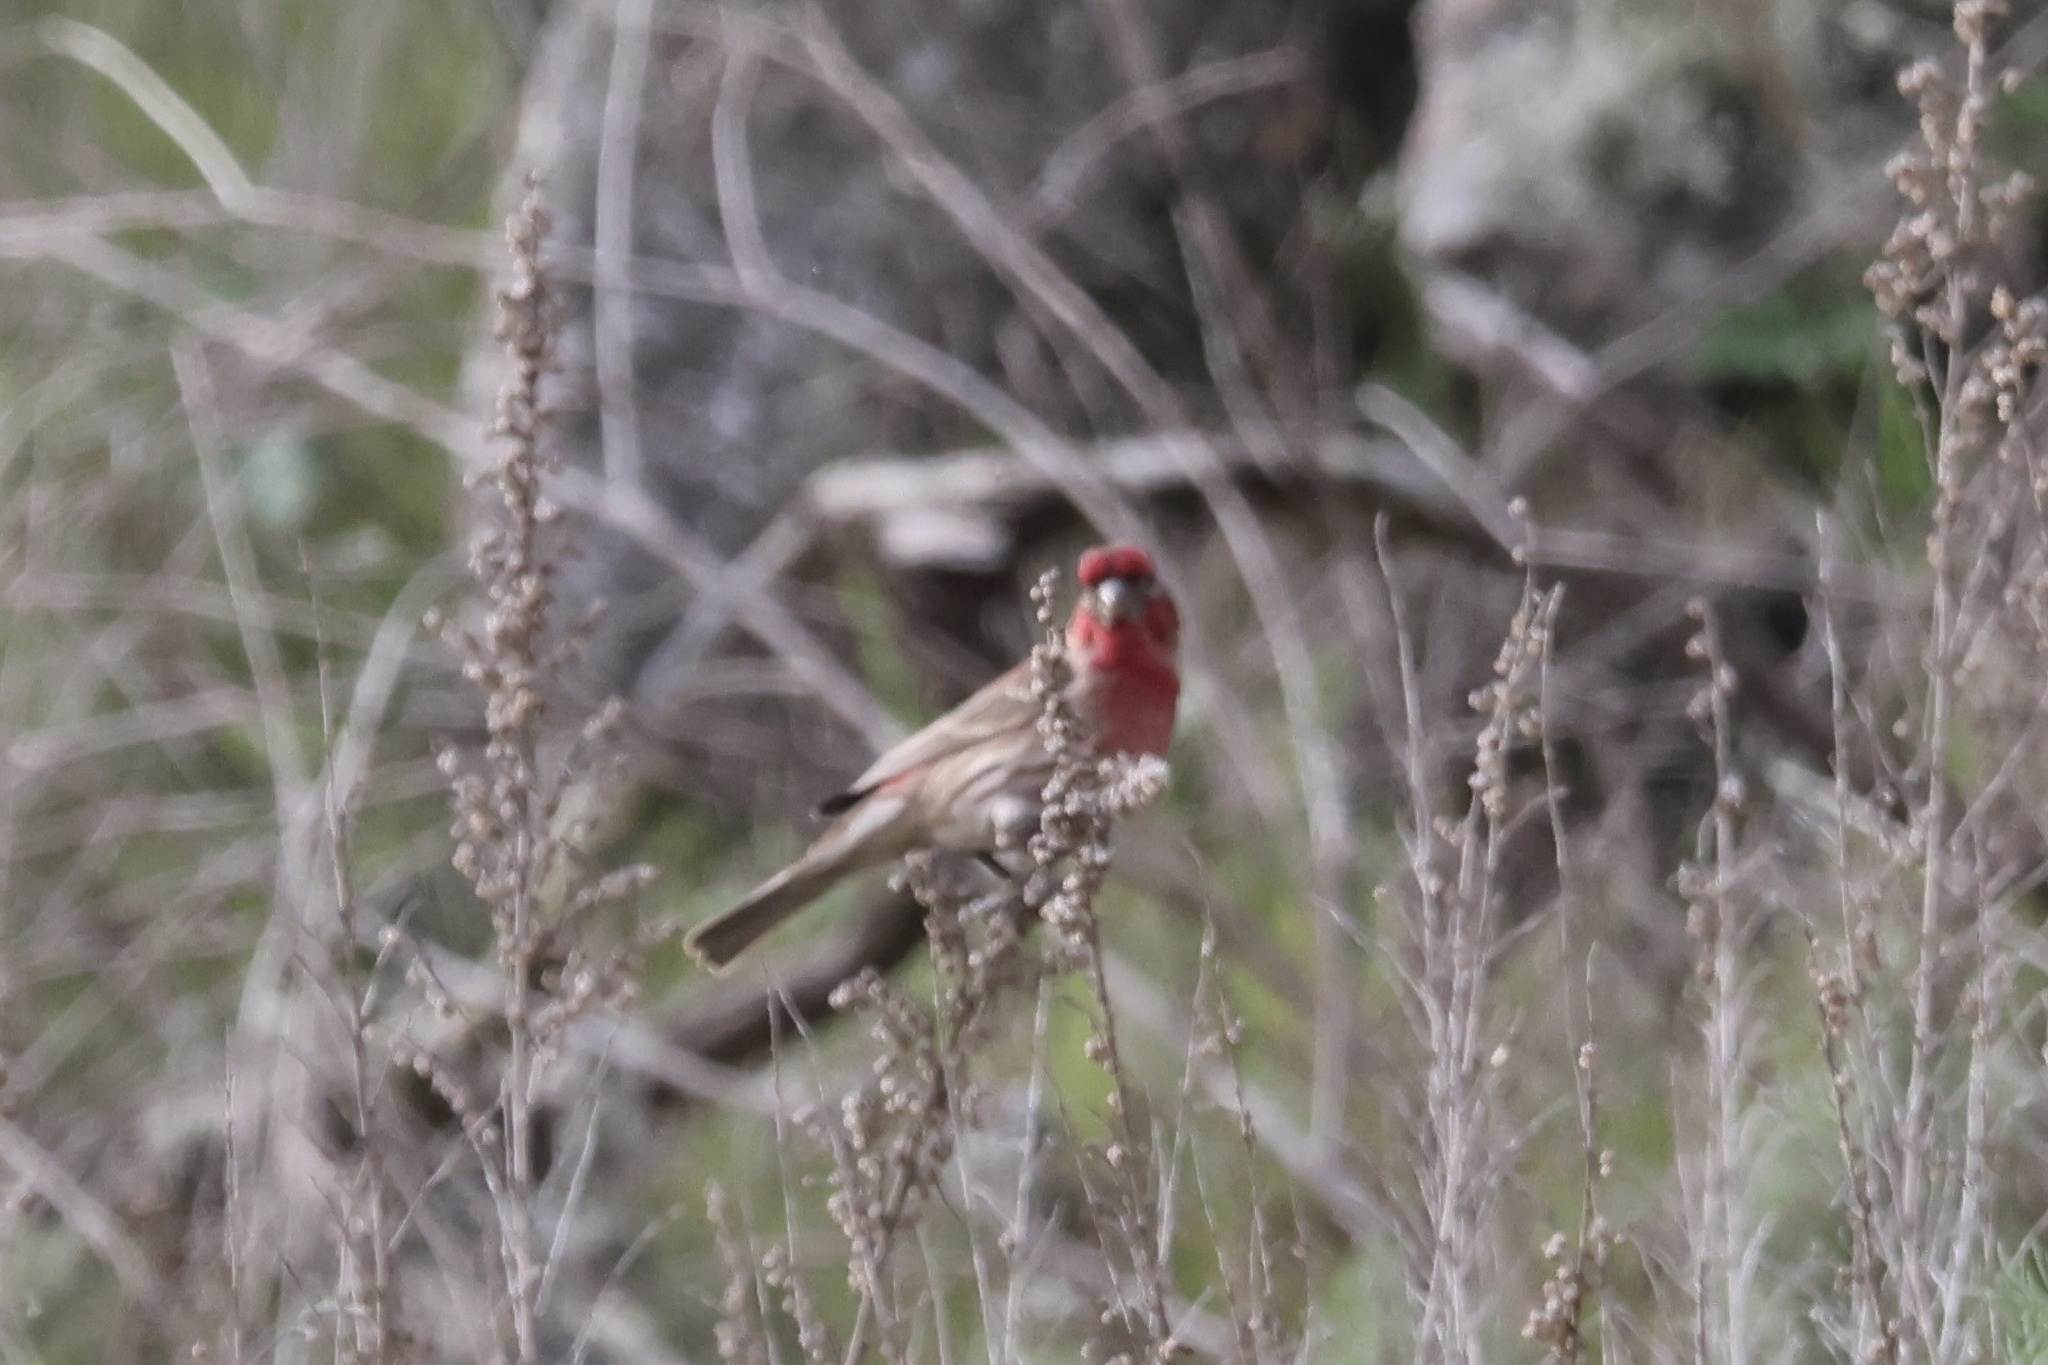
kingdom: Animalia
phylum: Chordata
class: Aves
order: Passeriformes
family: Fringillidae
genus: Haemorhous
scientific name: Haemorhous mexicanus
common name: House finch
